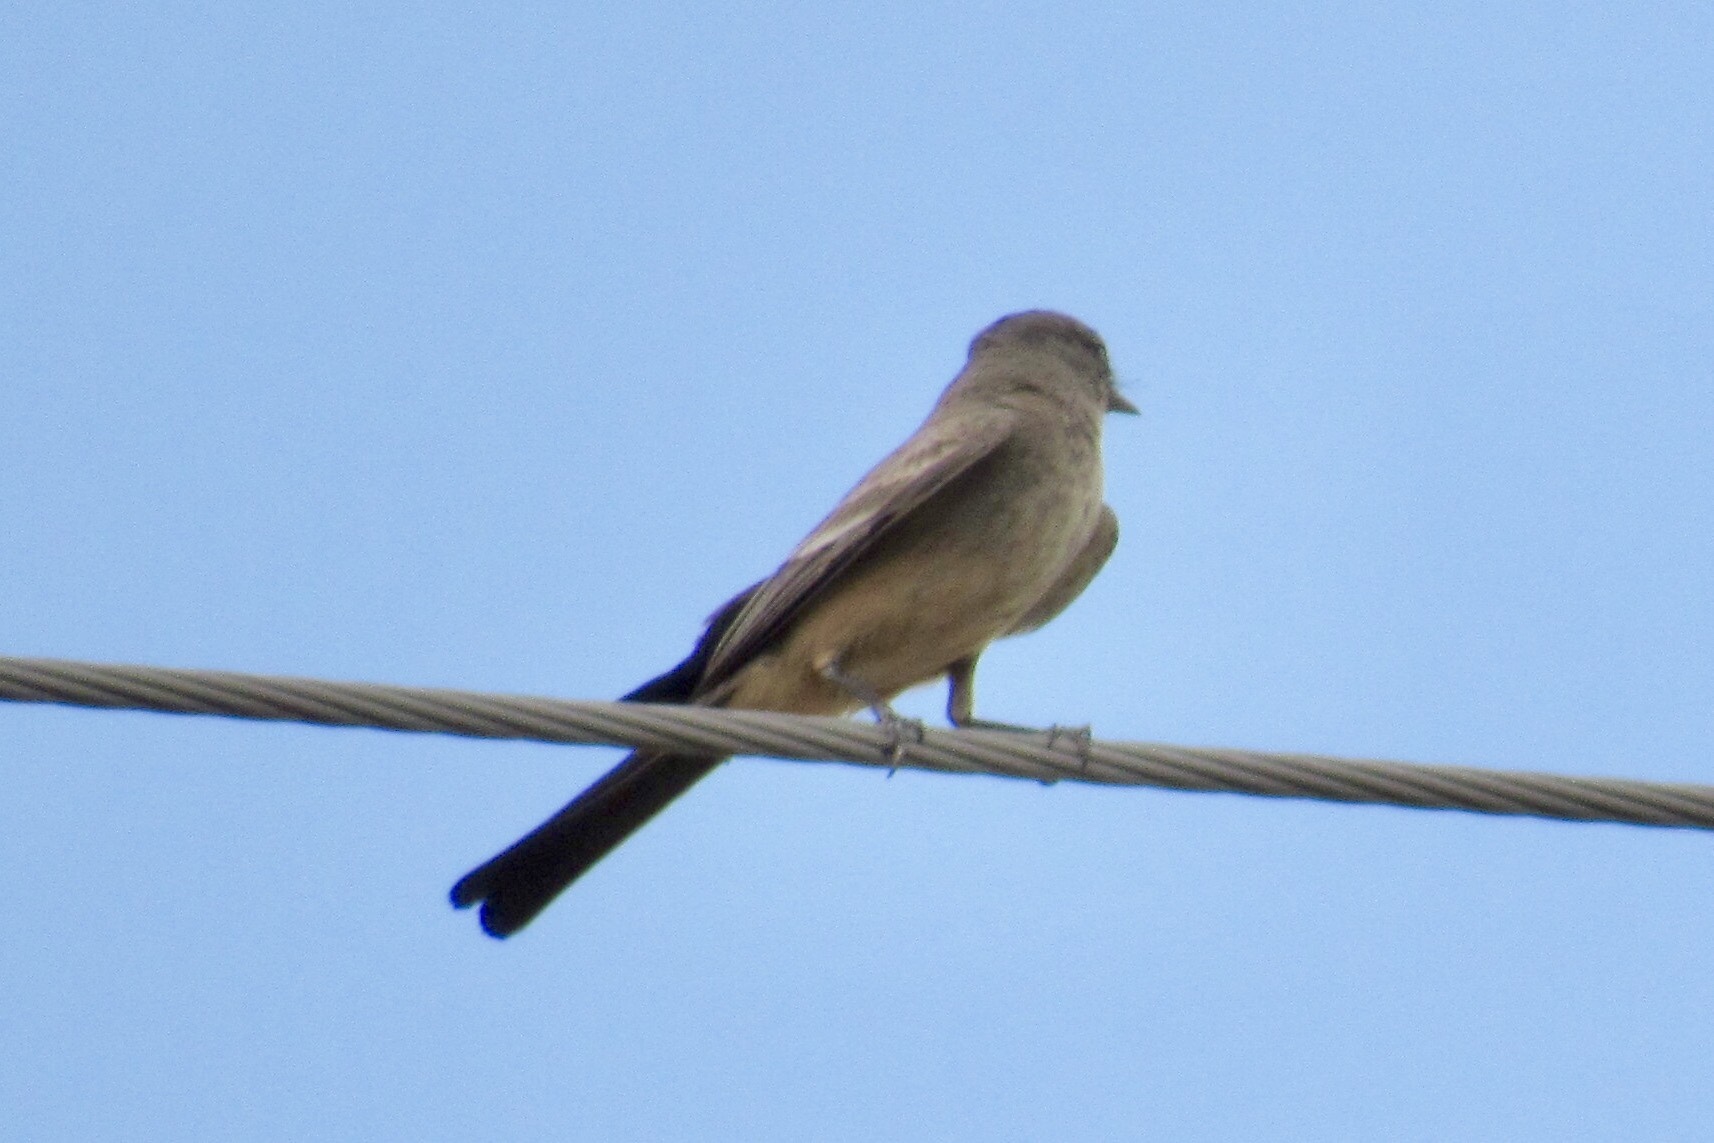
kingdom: Animalia
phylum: Chordata
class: Aves
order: Passeriformes
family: Tyrannidae
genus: Sayornis
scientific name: Sayornis saya
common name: Say's phoebe
